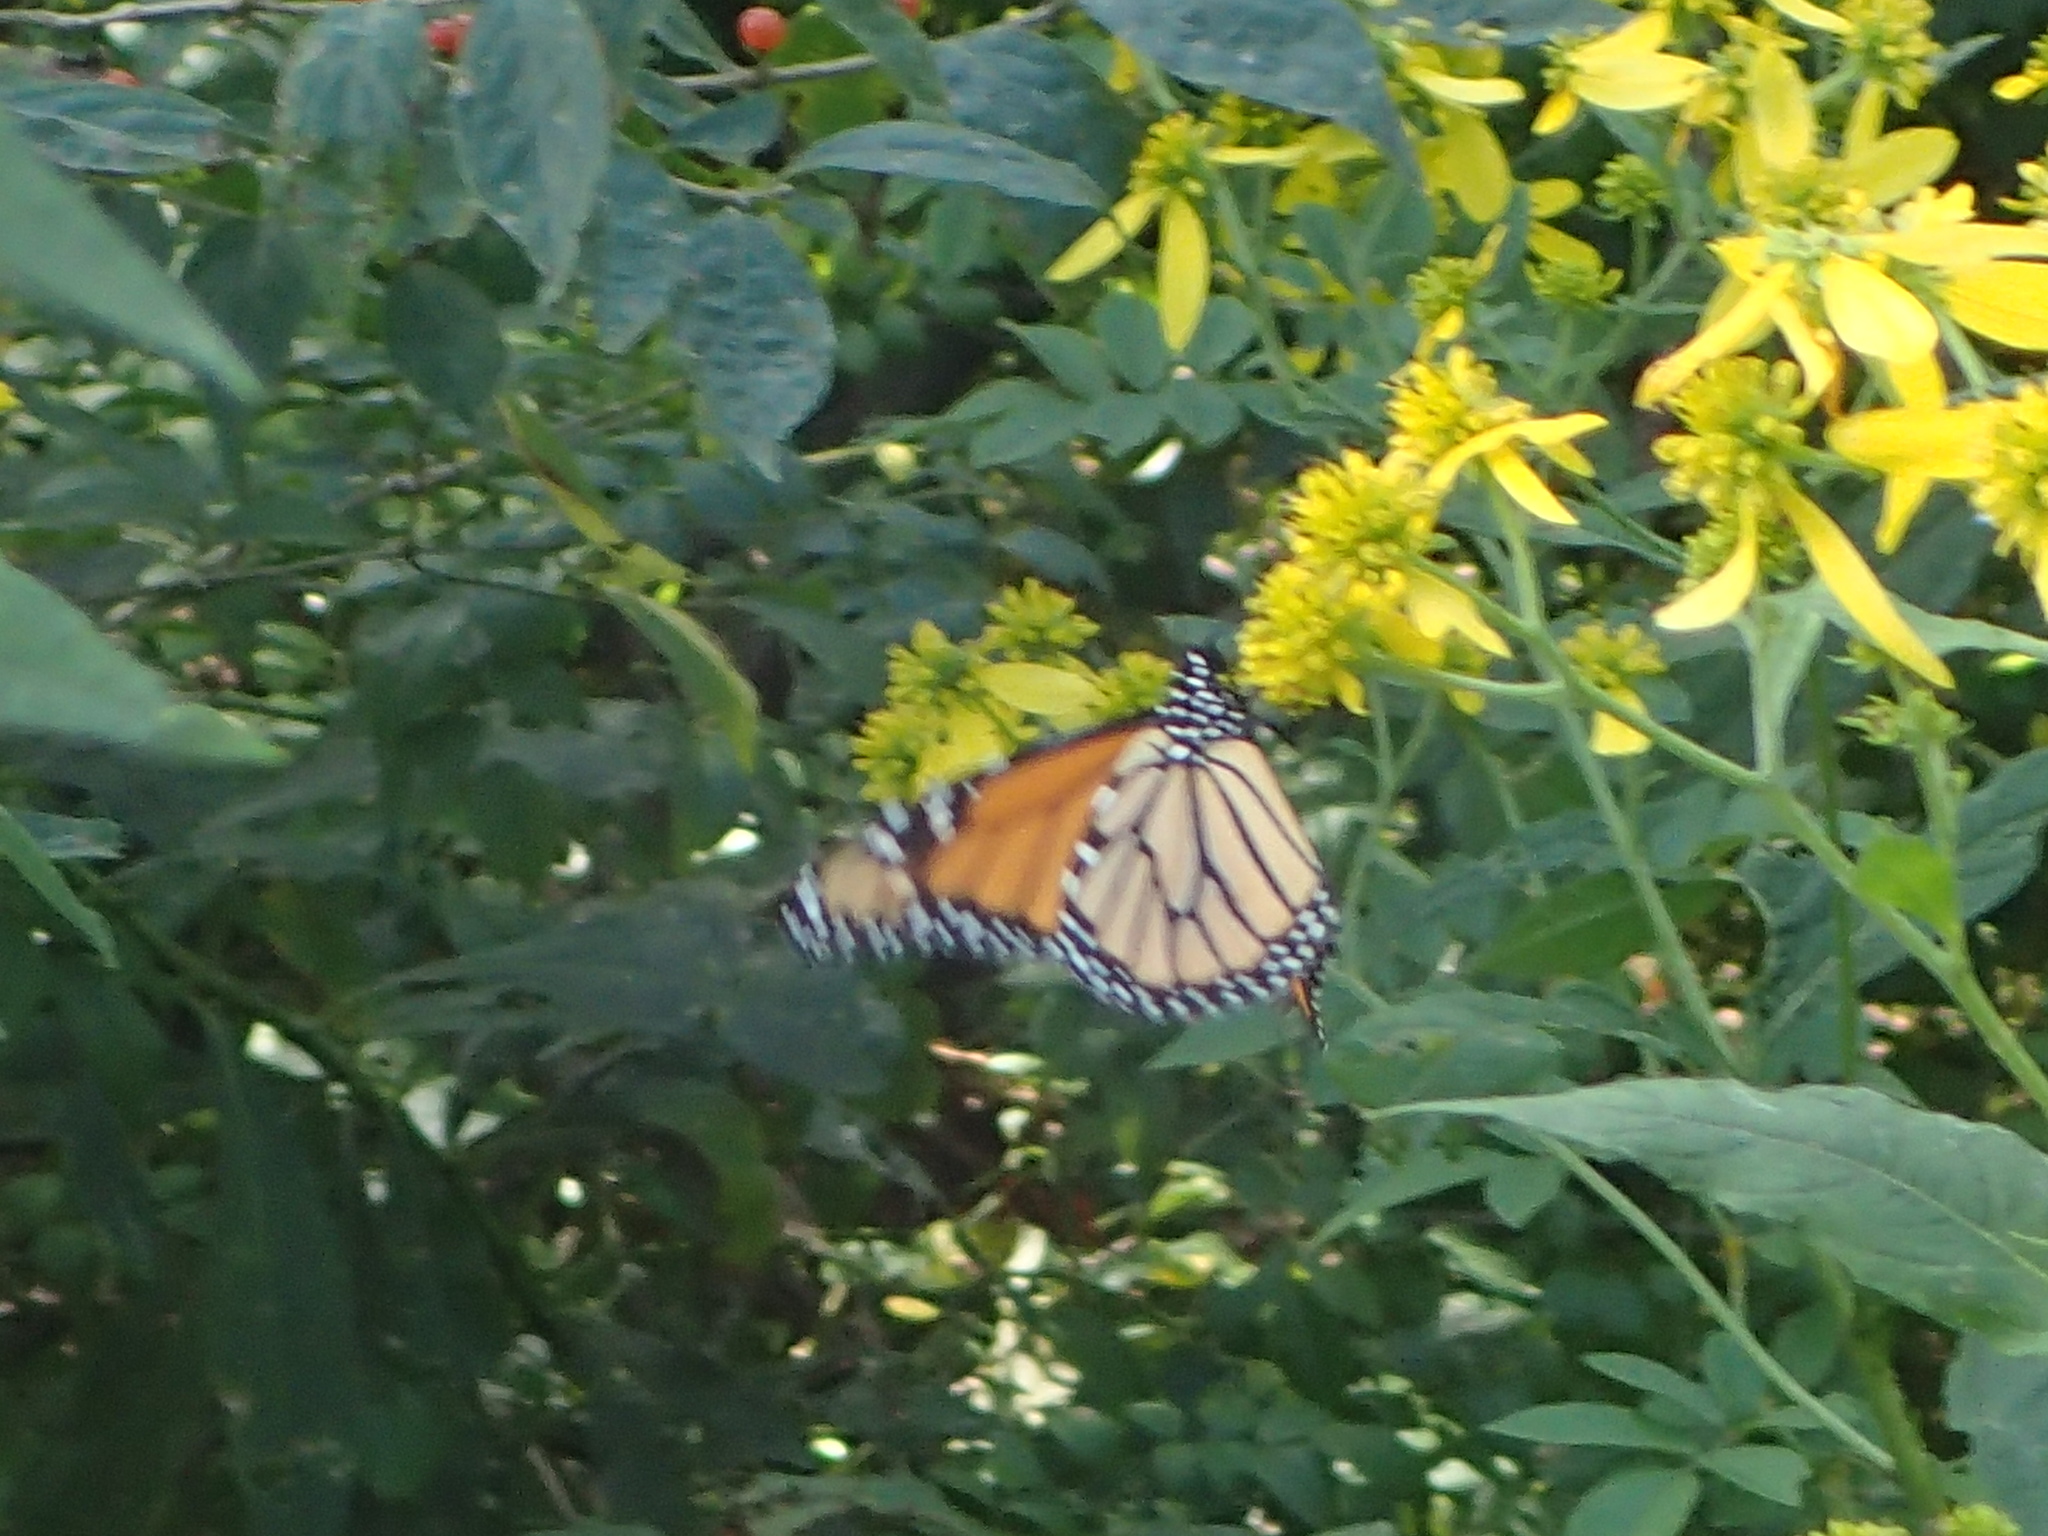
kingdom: Animalia
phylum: Arthropoda
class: Insecta
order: Lepidoptera
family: Nymphalidae
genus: Danaus
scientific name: Danaus plexippus
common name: Monarch
